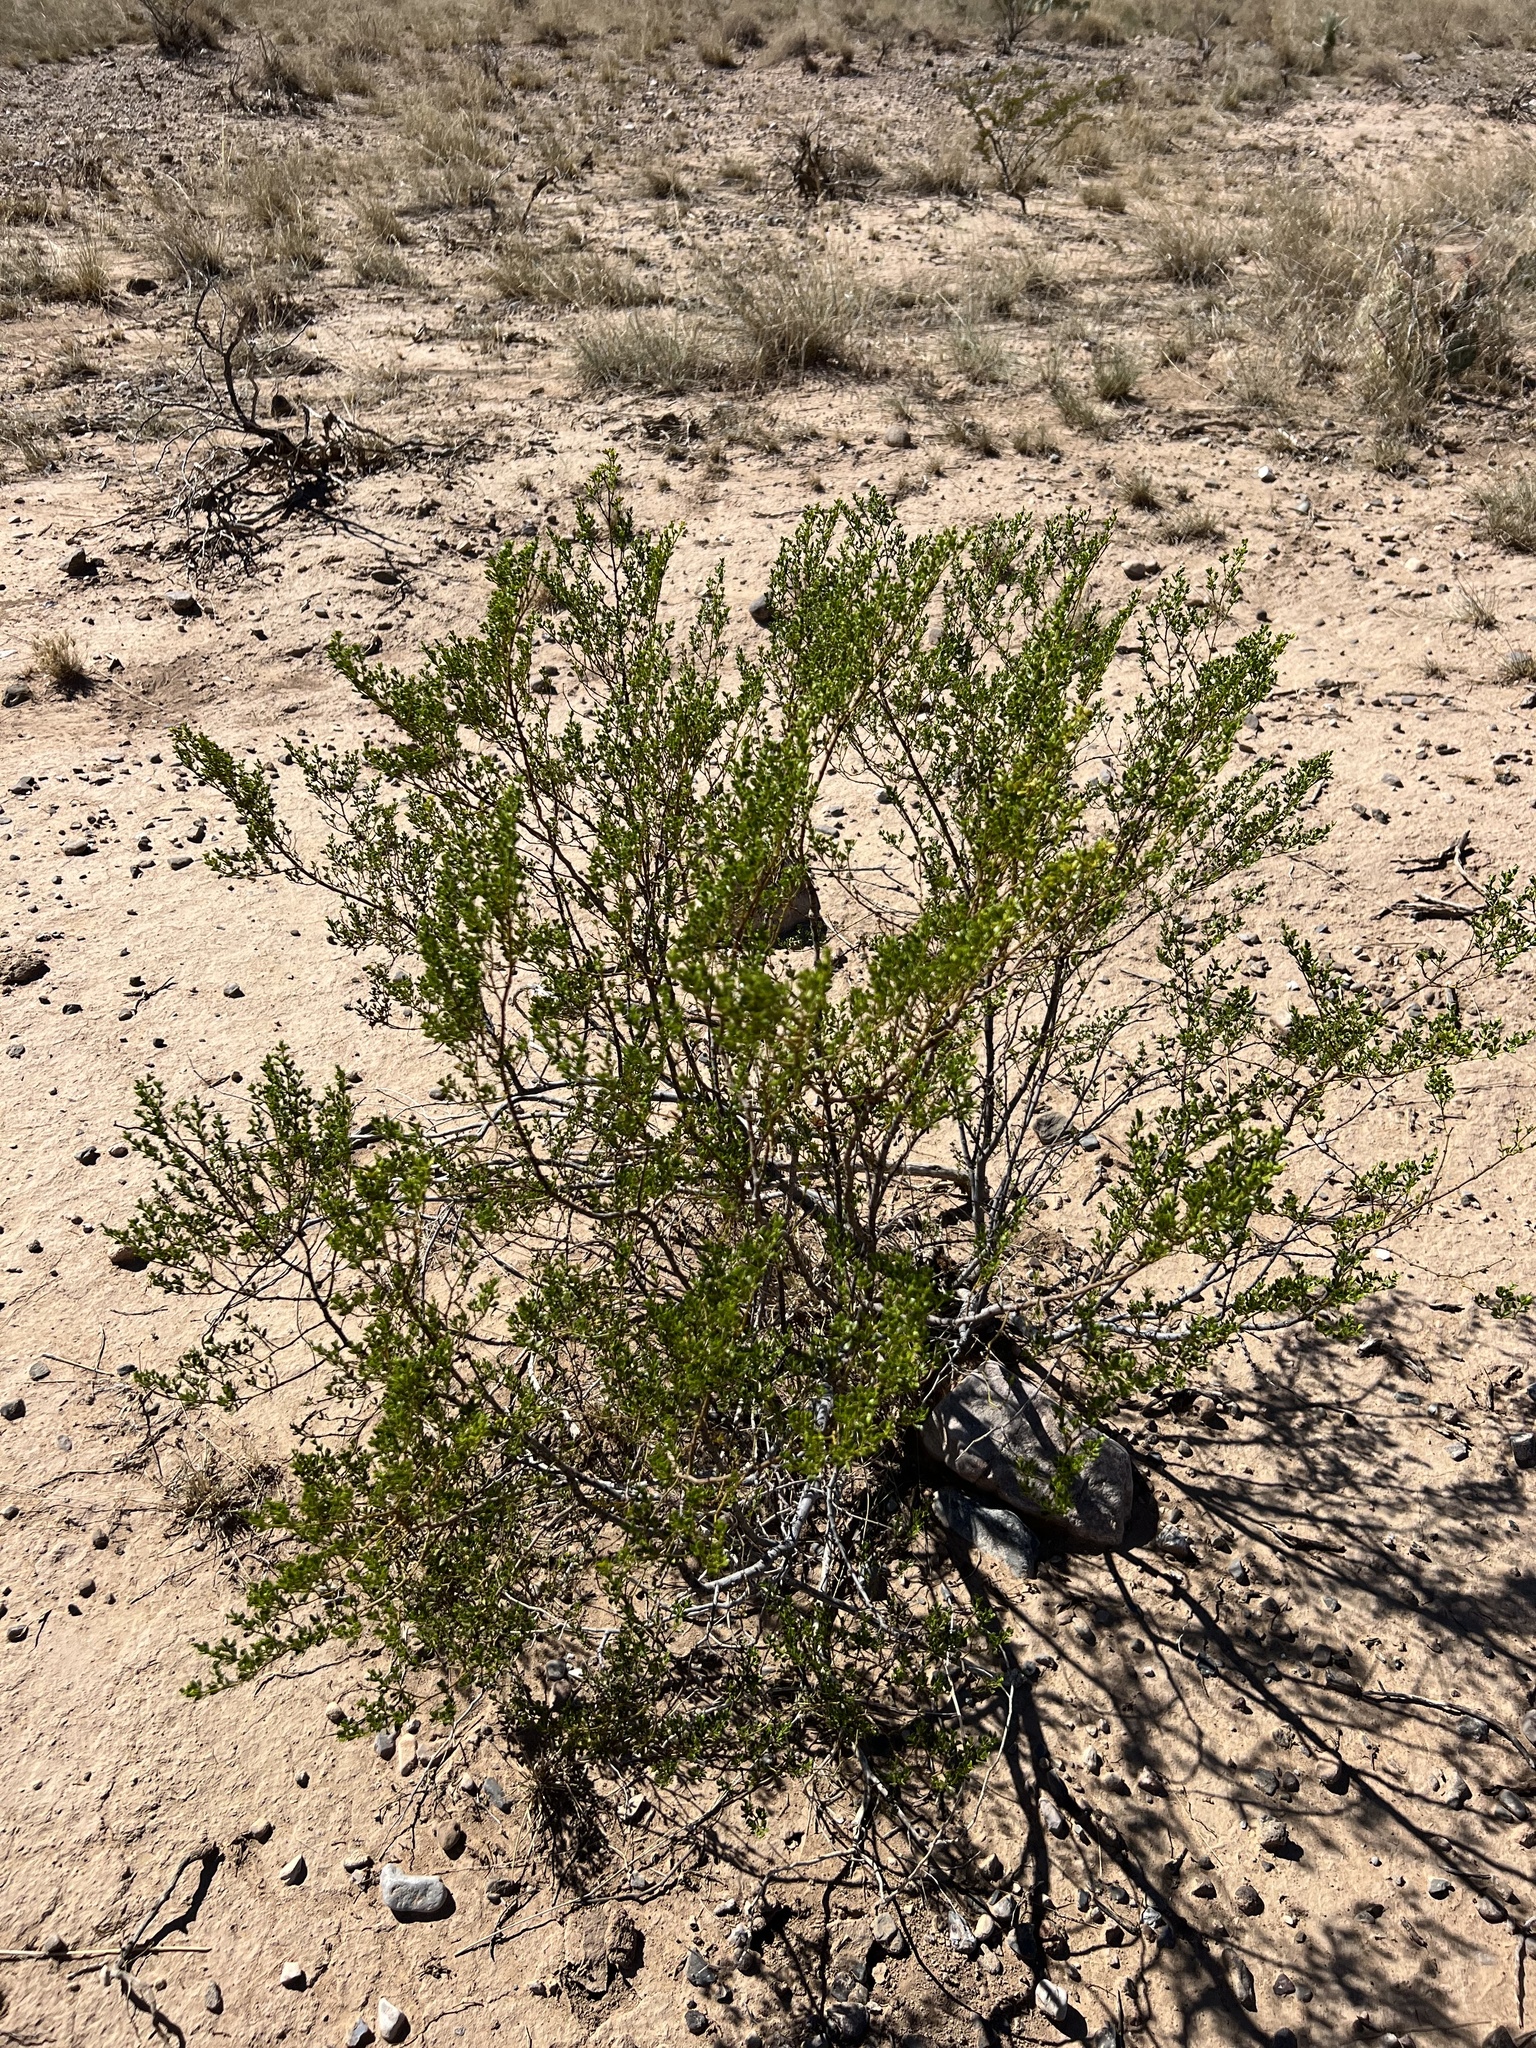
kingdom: Plantae
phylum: Tracheophyta
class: Magnoliopsida
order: Zygophyllales
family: Zygophyllaceae
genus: Larrea
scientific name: Larrea tridentata
